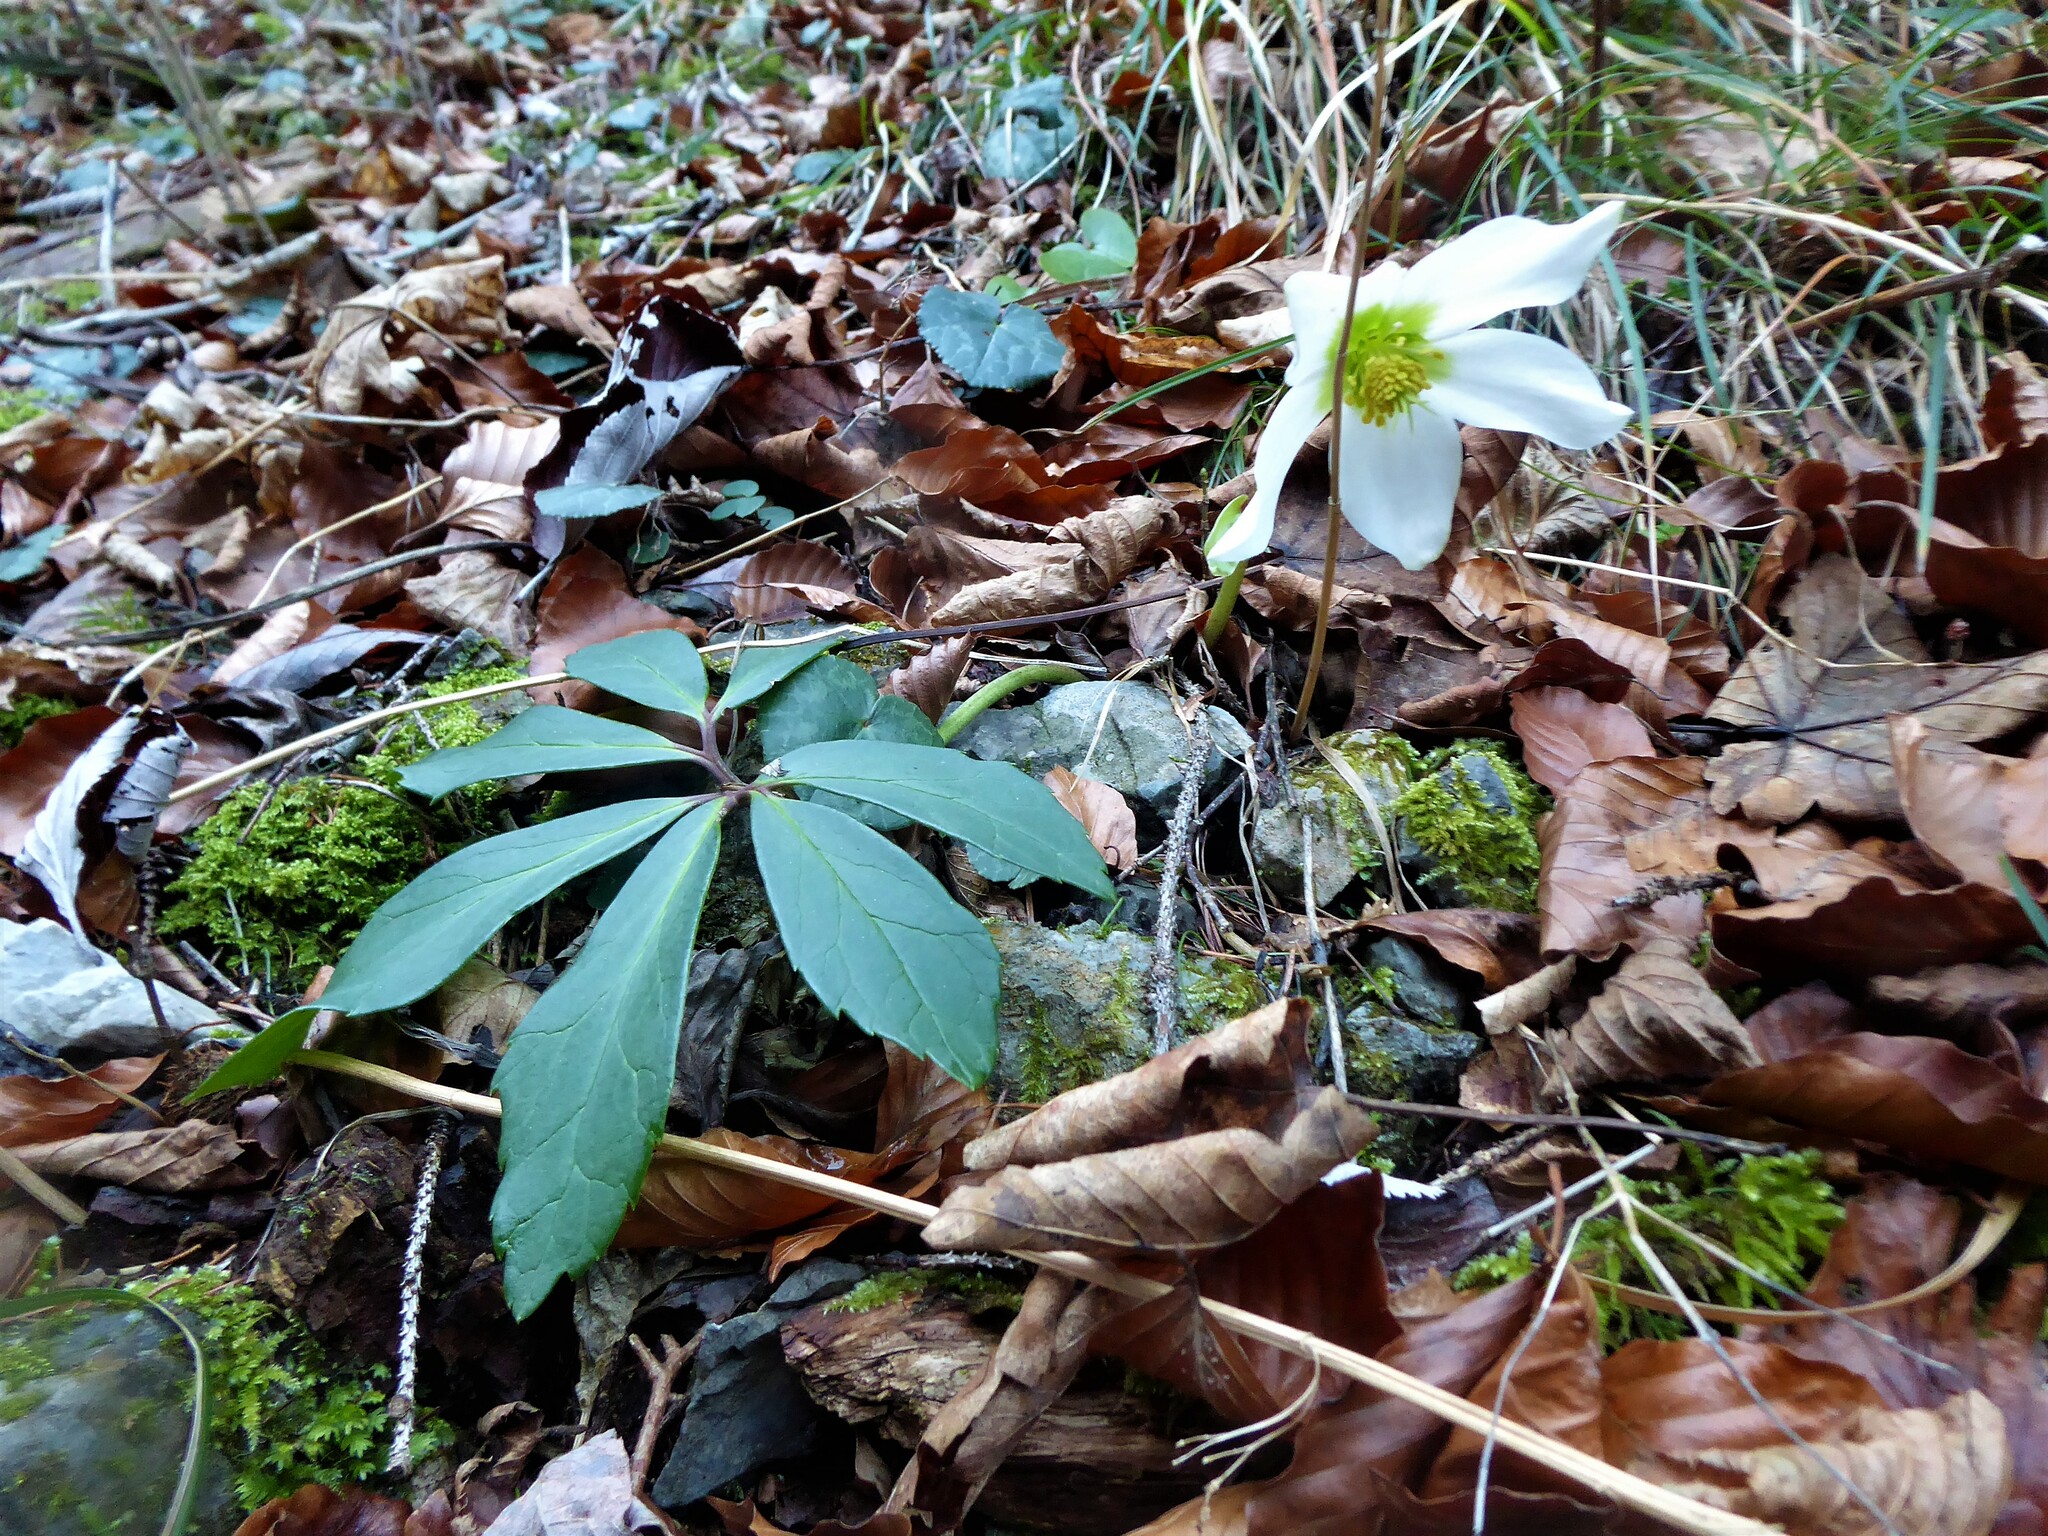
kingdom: Plantae
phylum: Tracheophyta
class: Magnoliopsida
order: Ranunculales
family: Ranunculaceae
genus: Helleborus
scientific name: Helleborus niger
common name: Black hellebore
